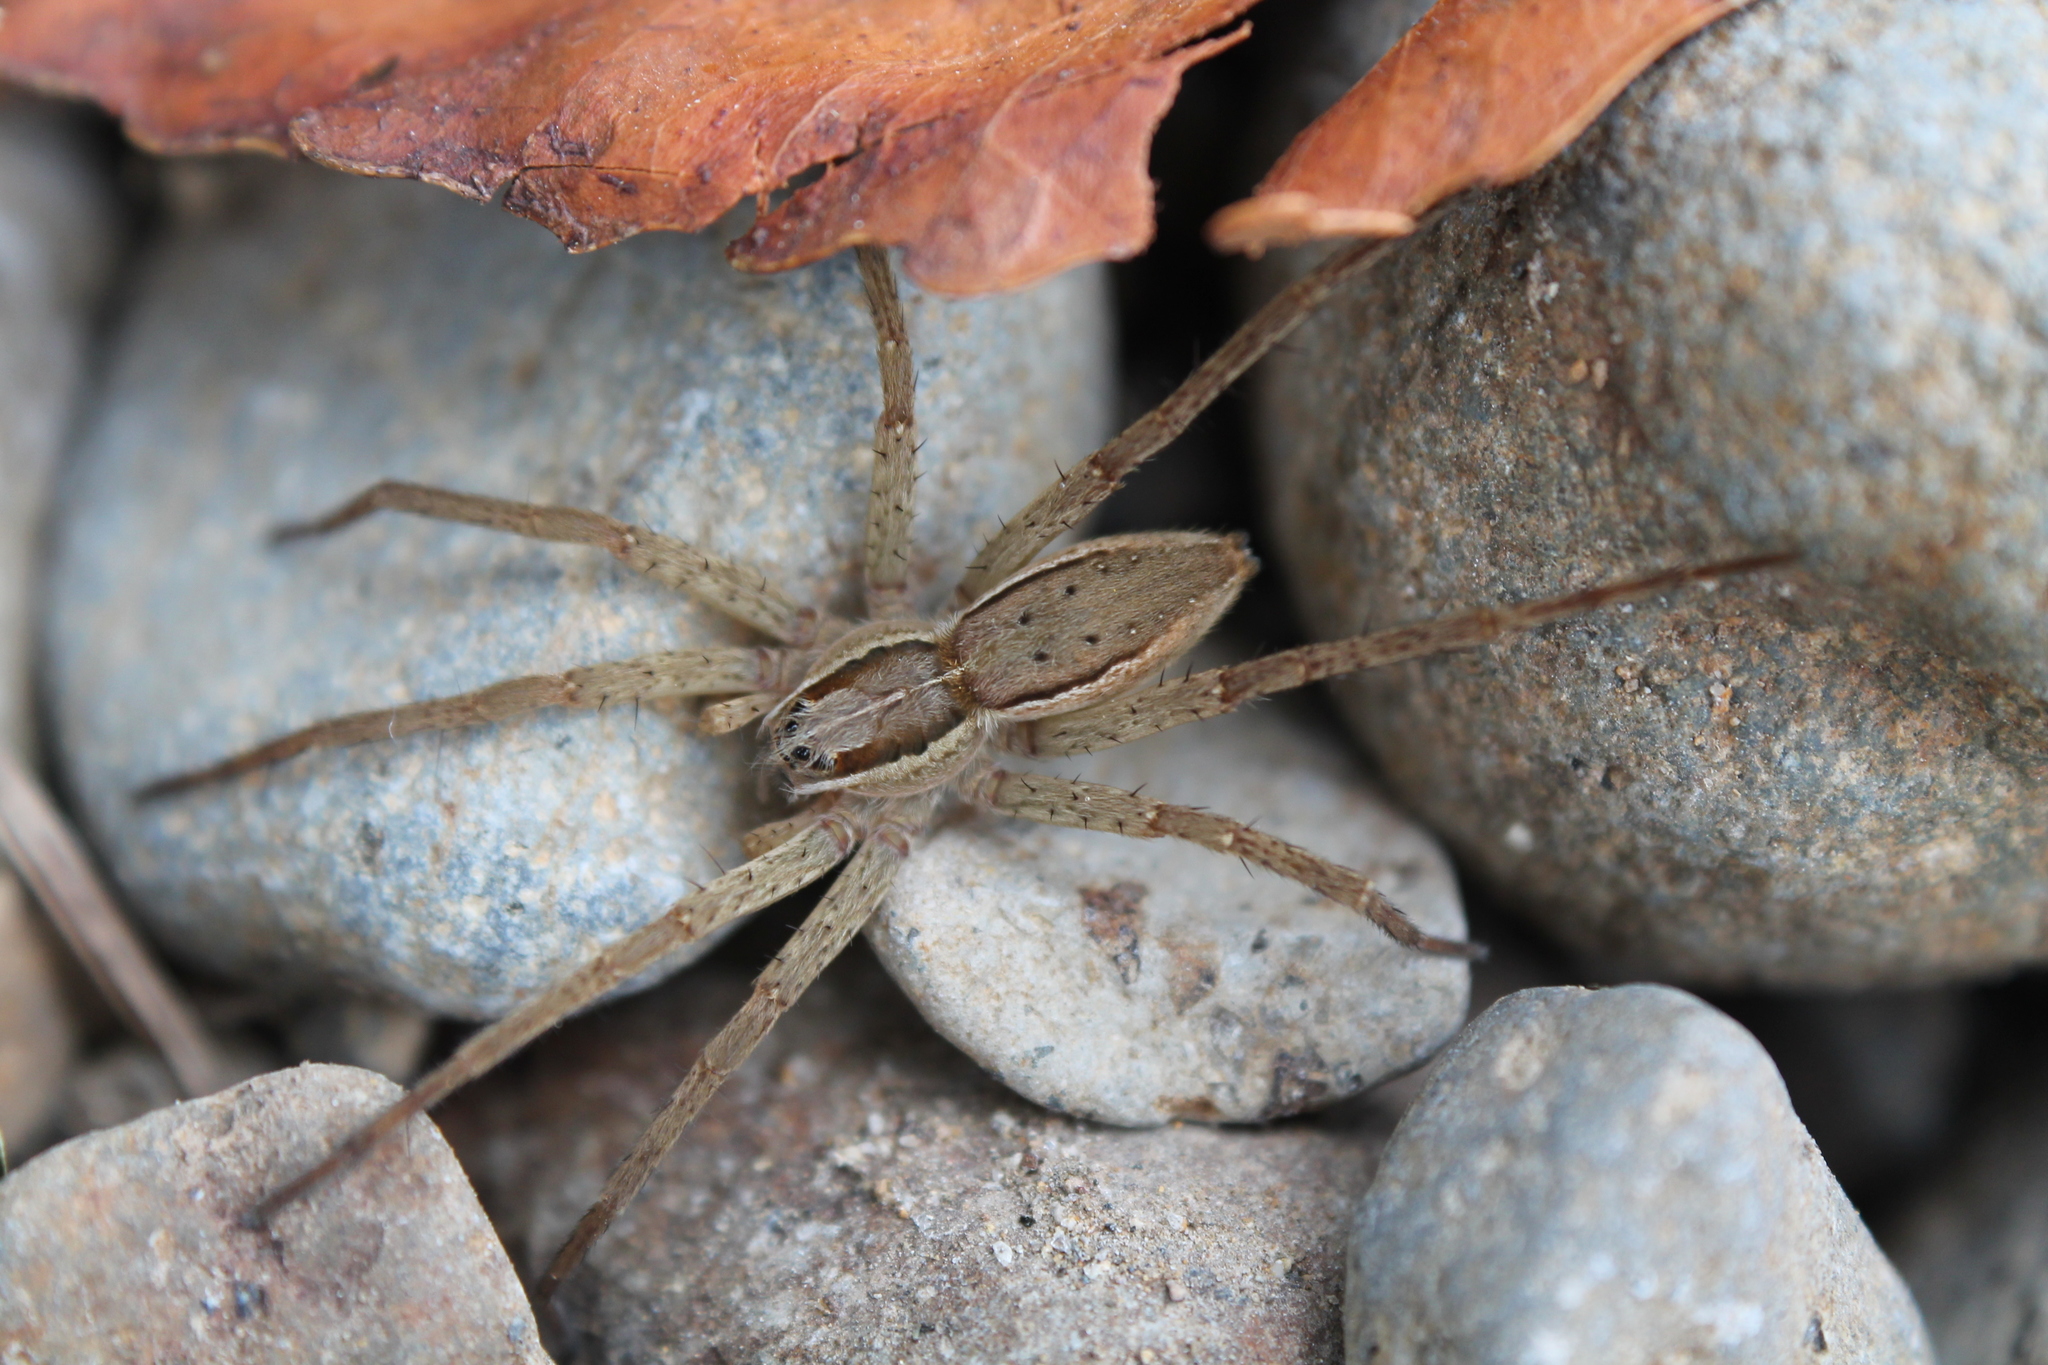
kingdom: Animalia
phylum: Arthropoda
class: Arachnida
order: Araneae
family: Pisauridae
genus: Dolomedes
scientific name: Dolomedes minor
